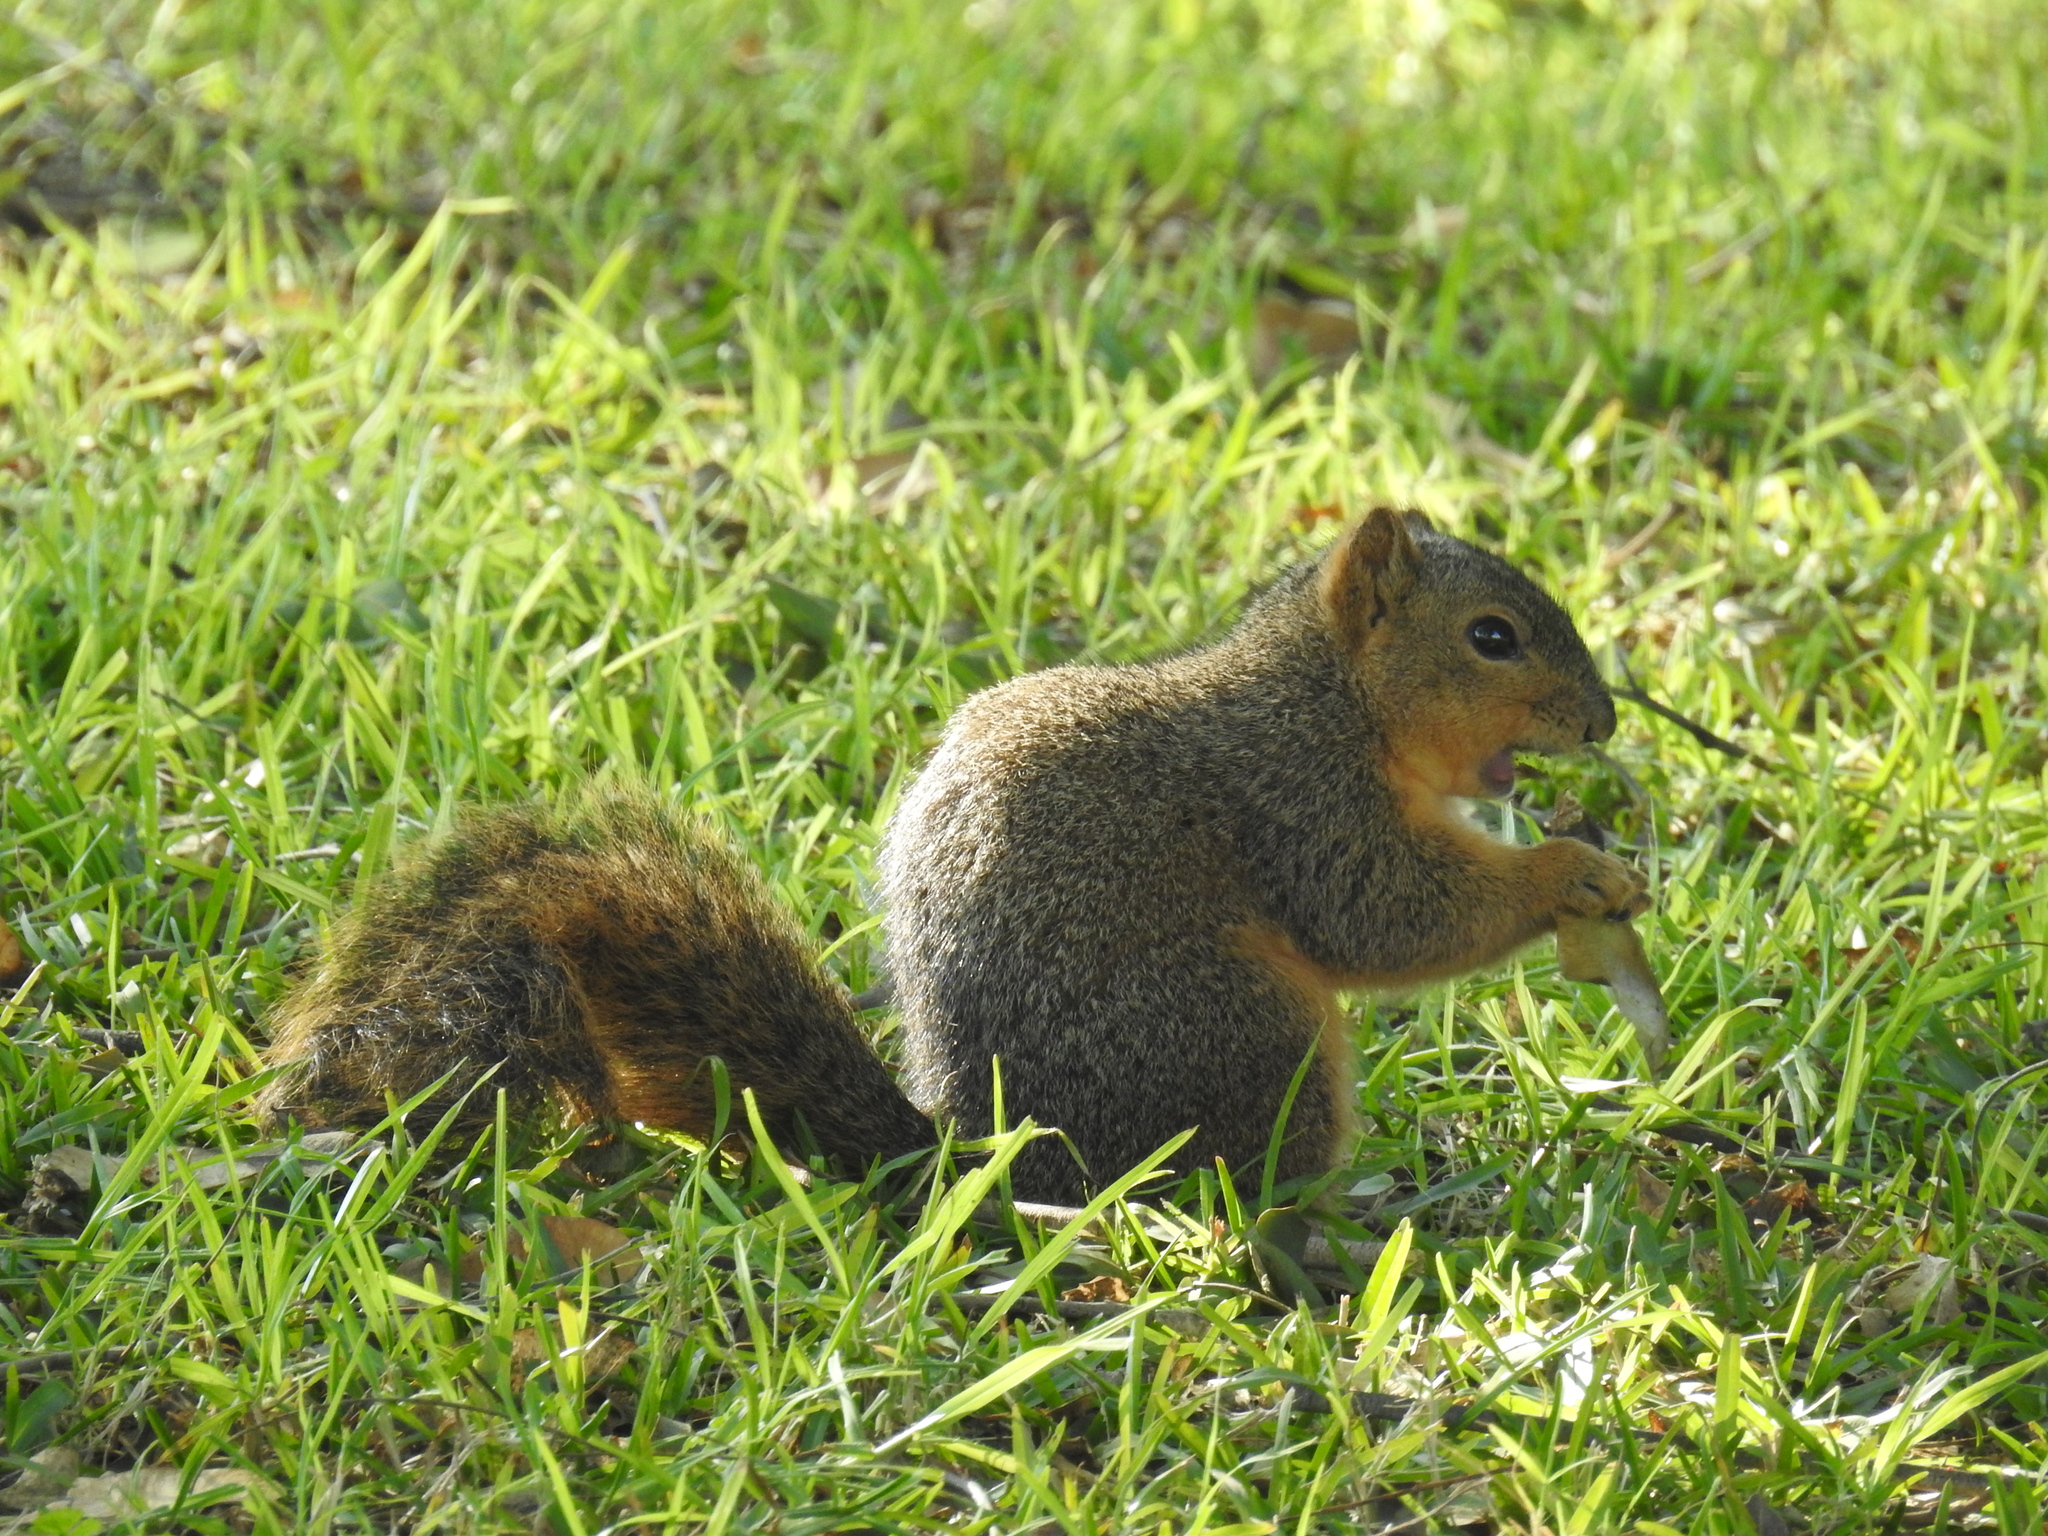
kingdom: Animalia
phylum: Chordata
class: Mammalia
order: Rodentia
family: Sciuridae
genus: Sciurus
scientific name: Sciurus niger
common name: Fox squirrel
